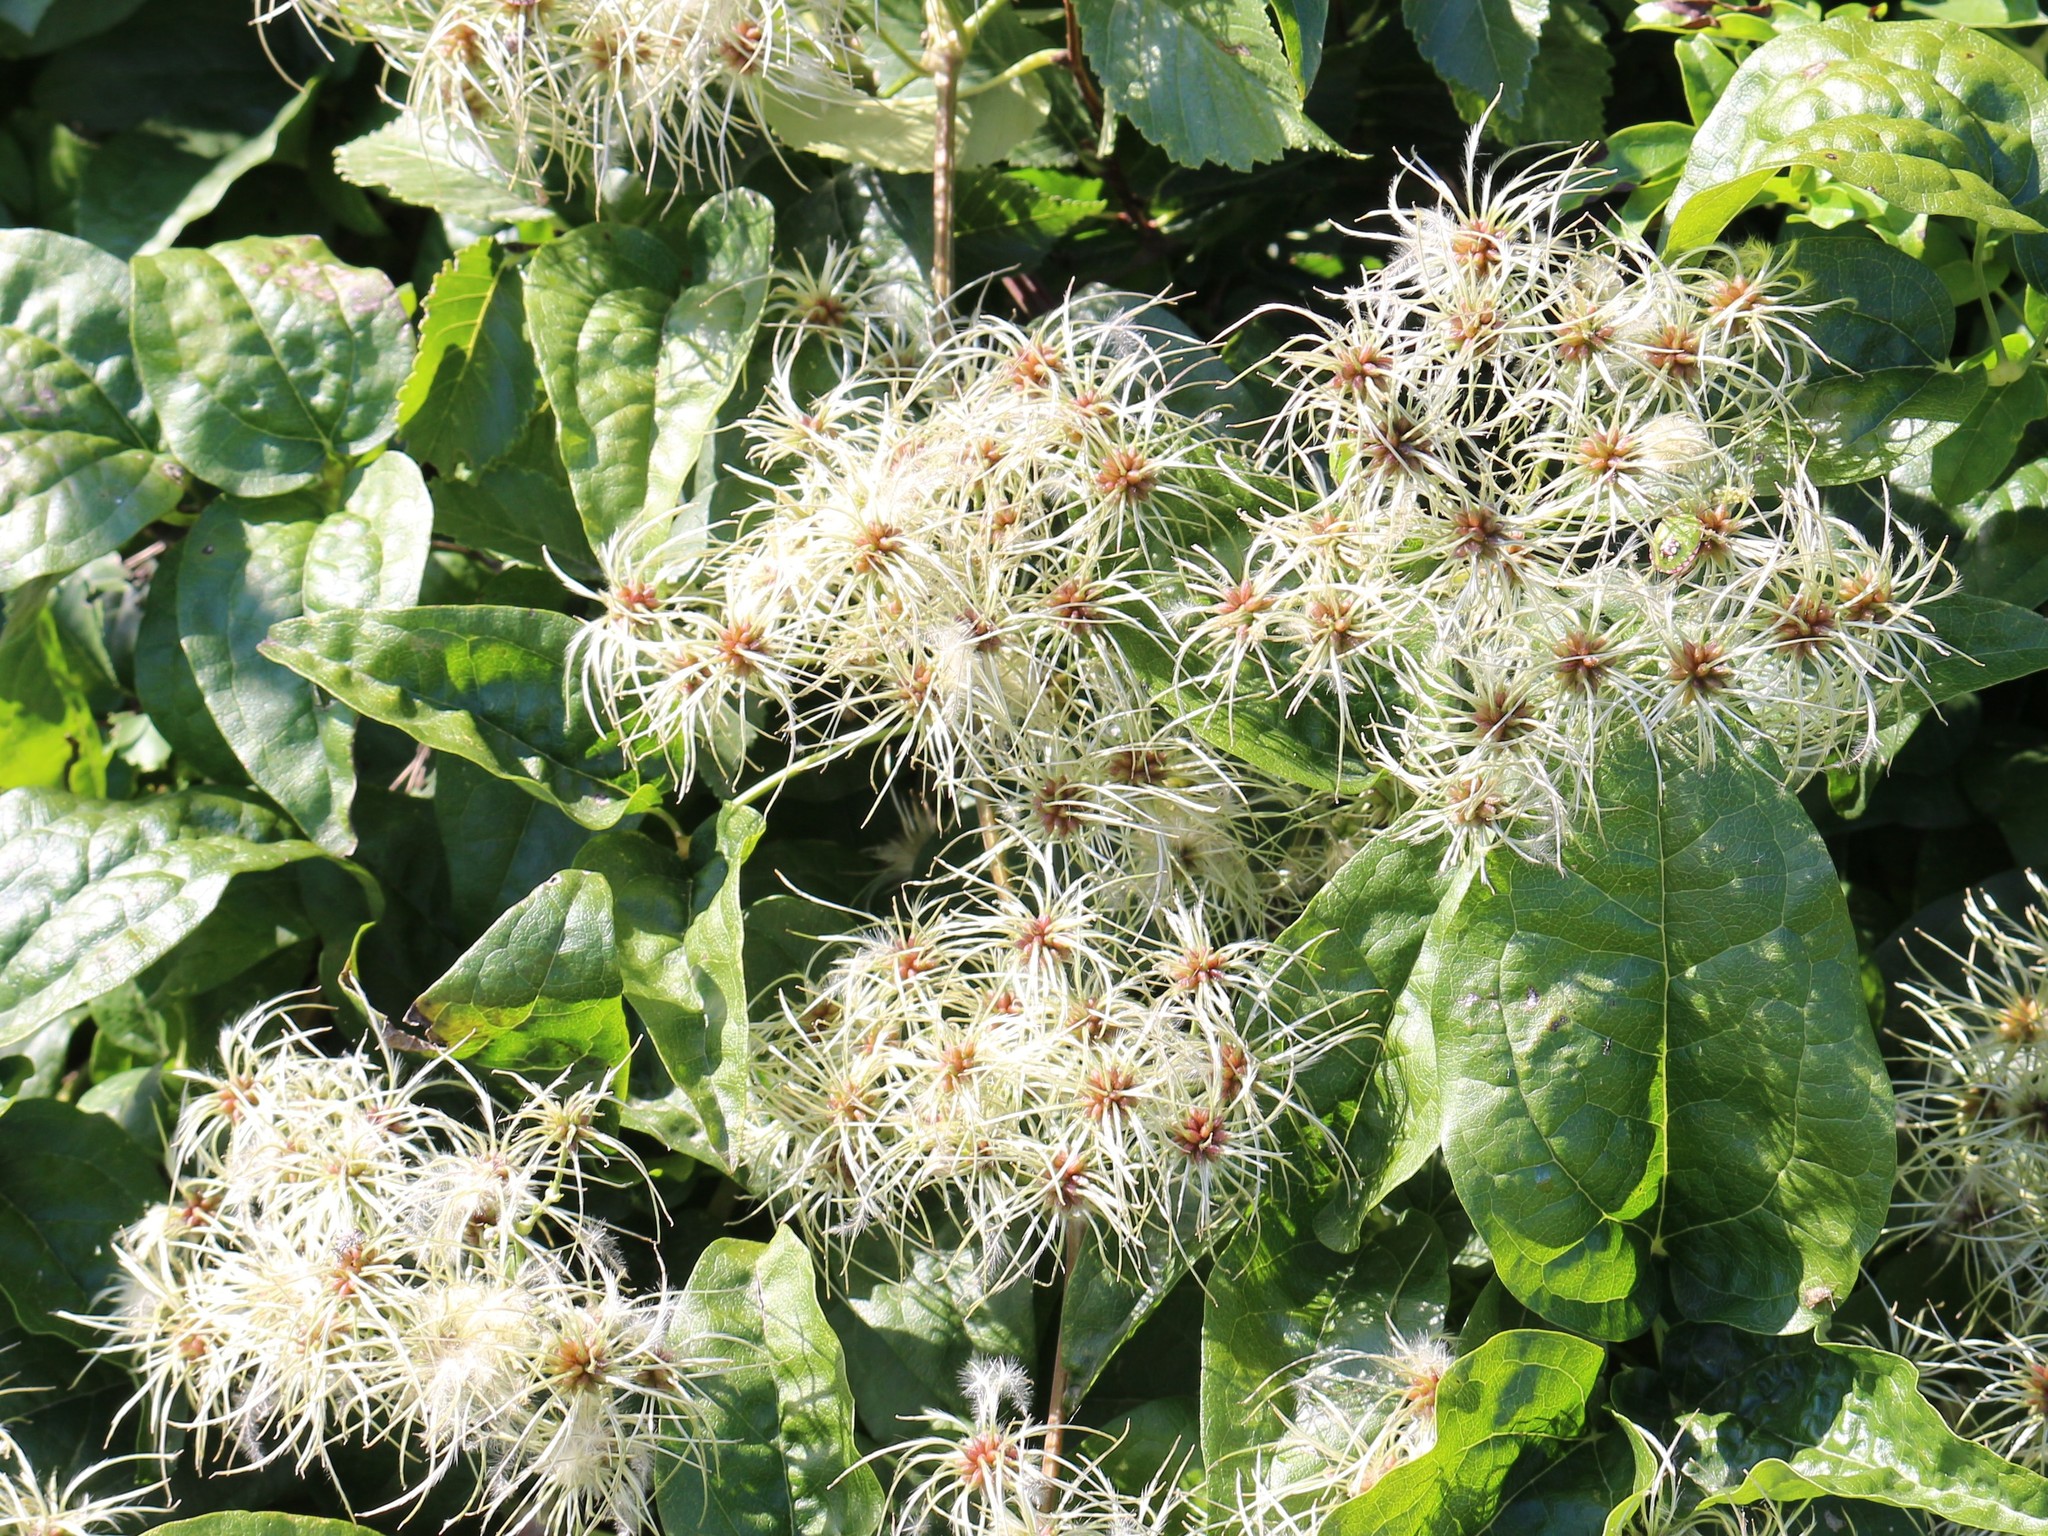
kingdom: Plantae
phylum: Tracheophyta
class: Magnoliopsida
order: Ranunculales
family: Ranunculaceae
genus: Clematis
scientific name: Clematis vitalba
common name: Evergreen clematis
